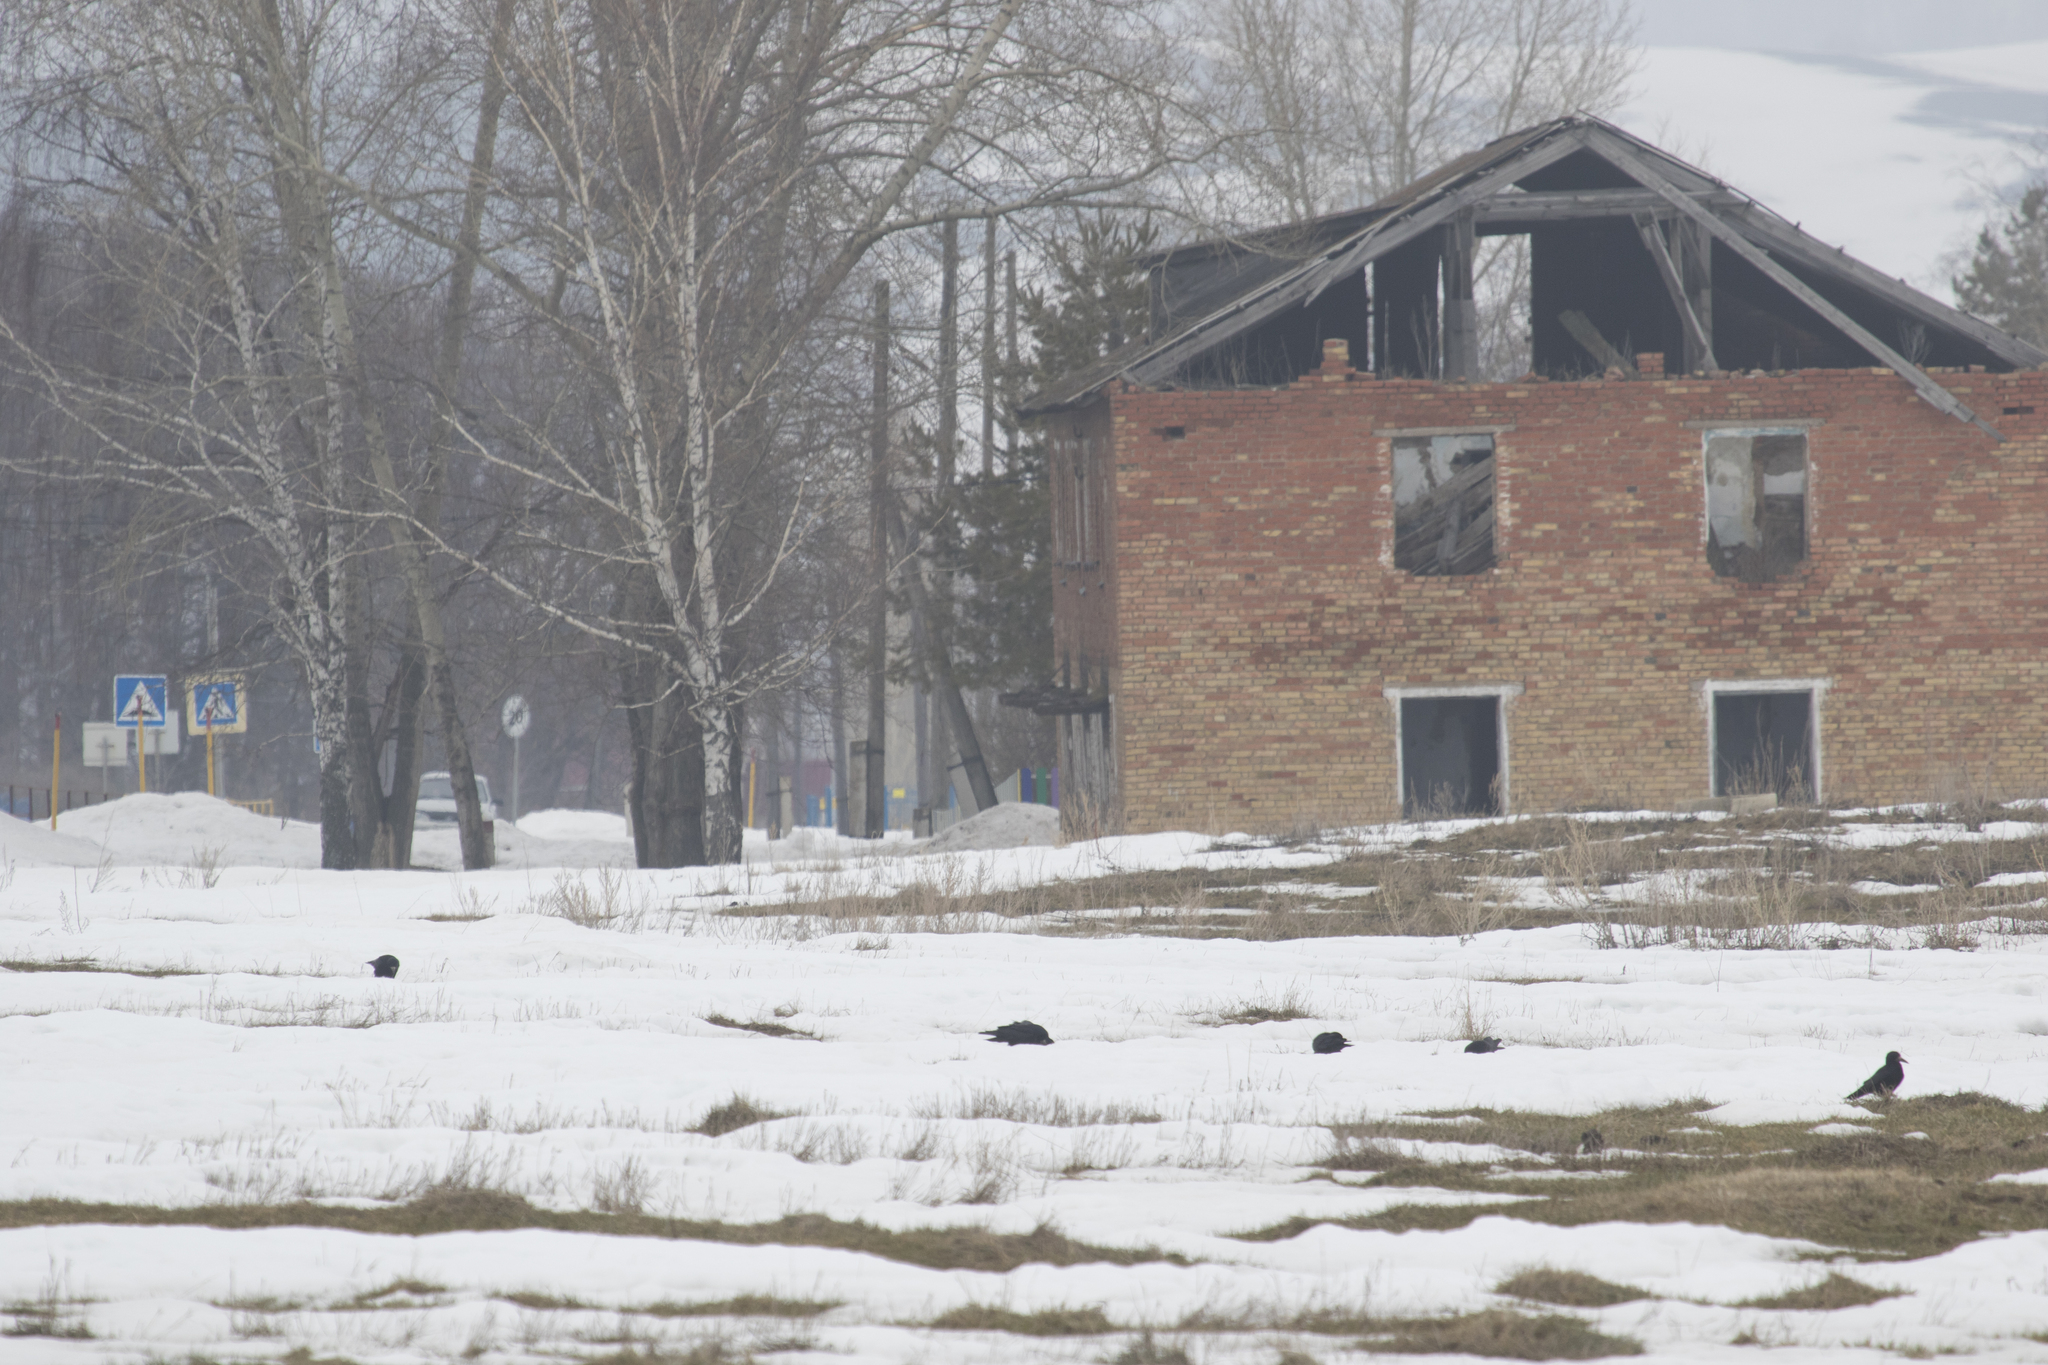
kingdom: Animalia
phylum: Chordata
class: Aves
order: Passeriformes
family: Corvidae
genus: Corvus
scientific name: Corvus frugilegus
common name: Rook
